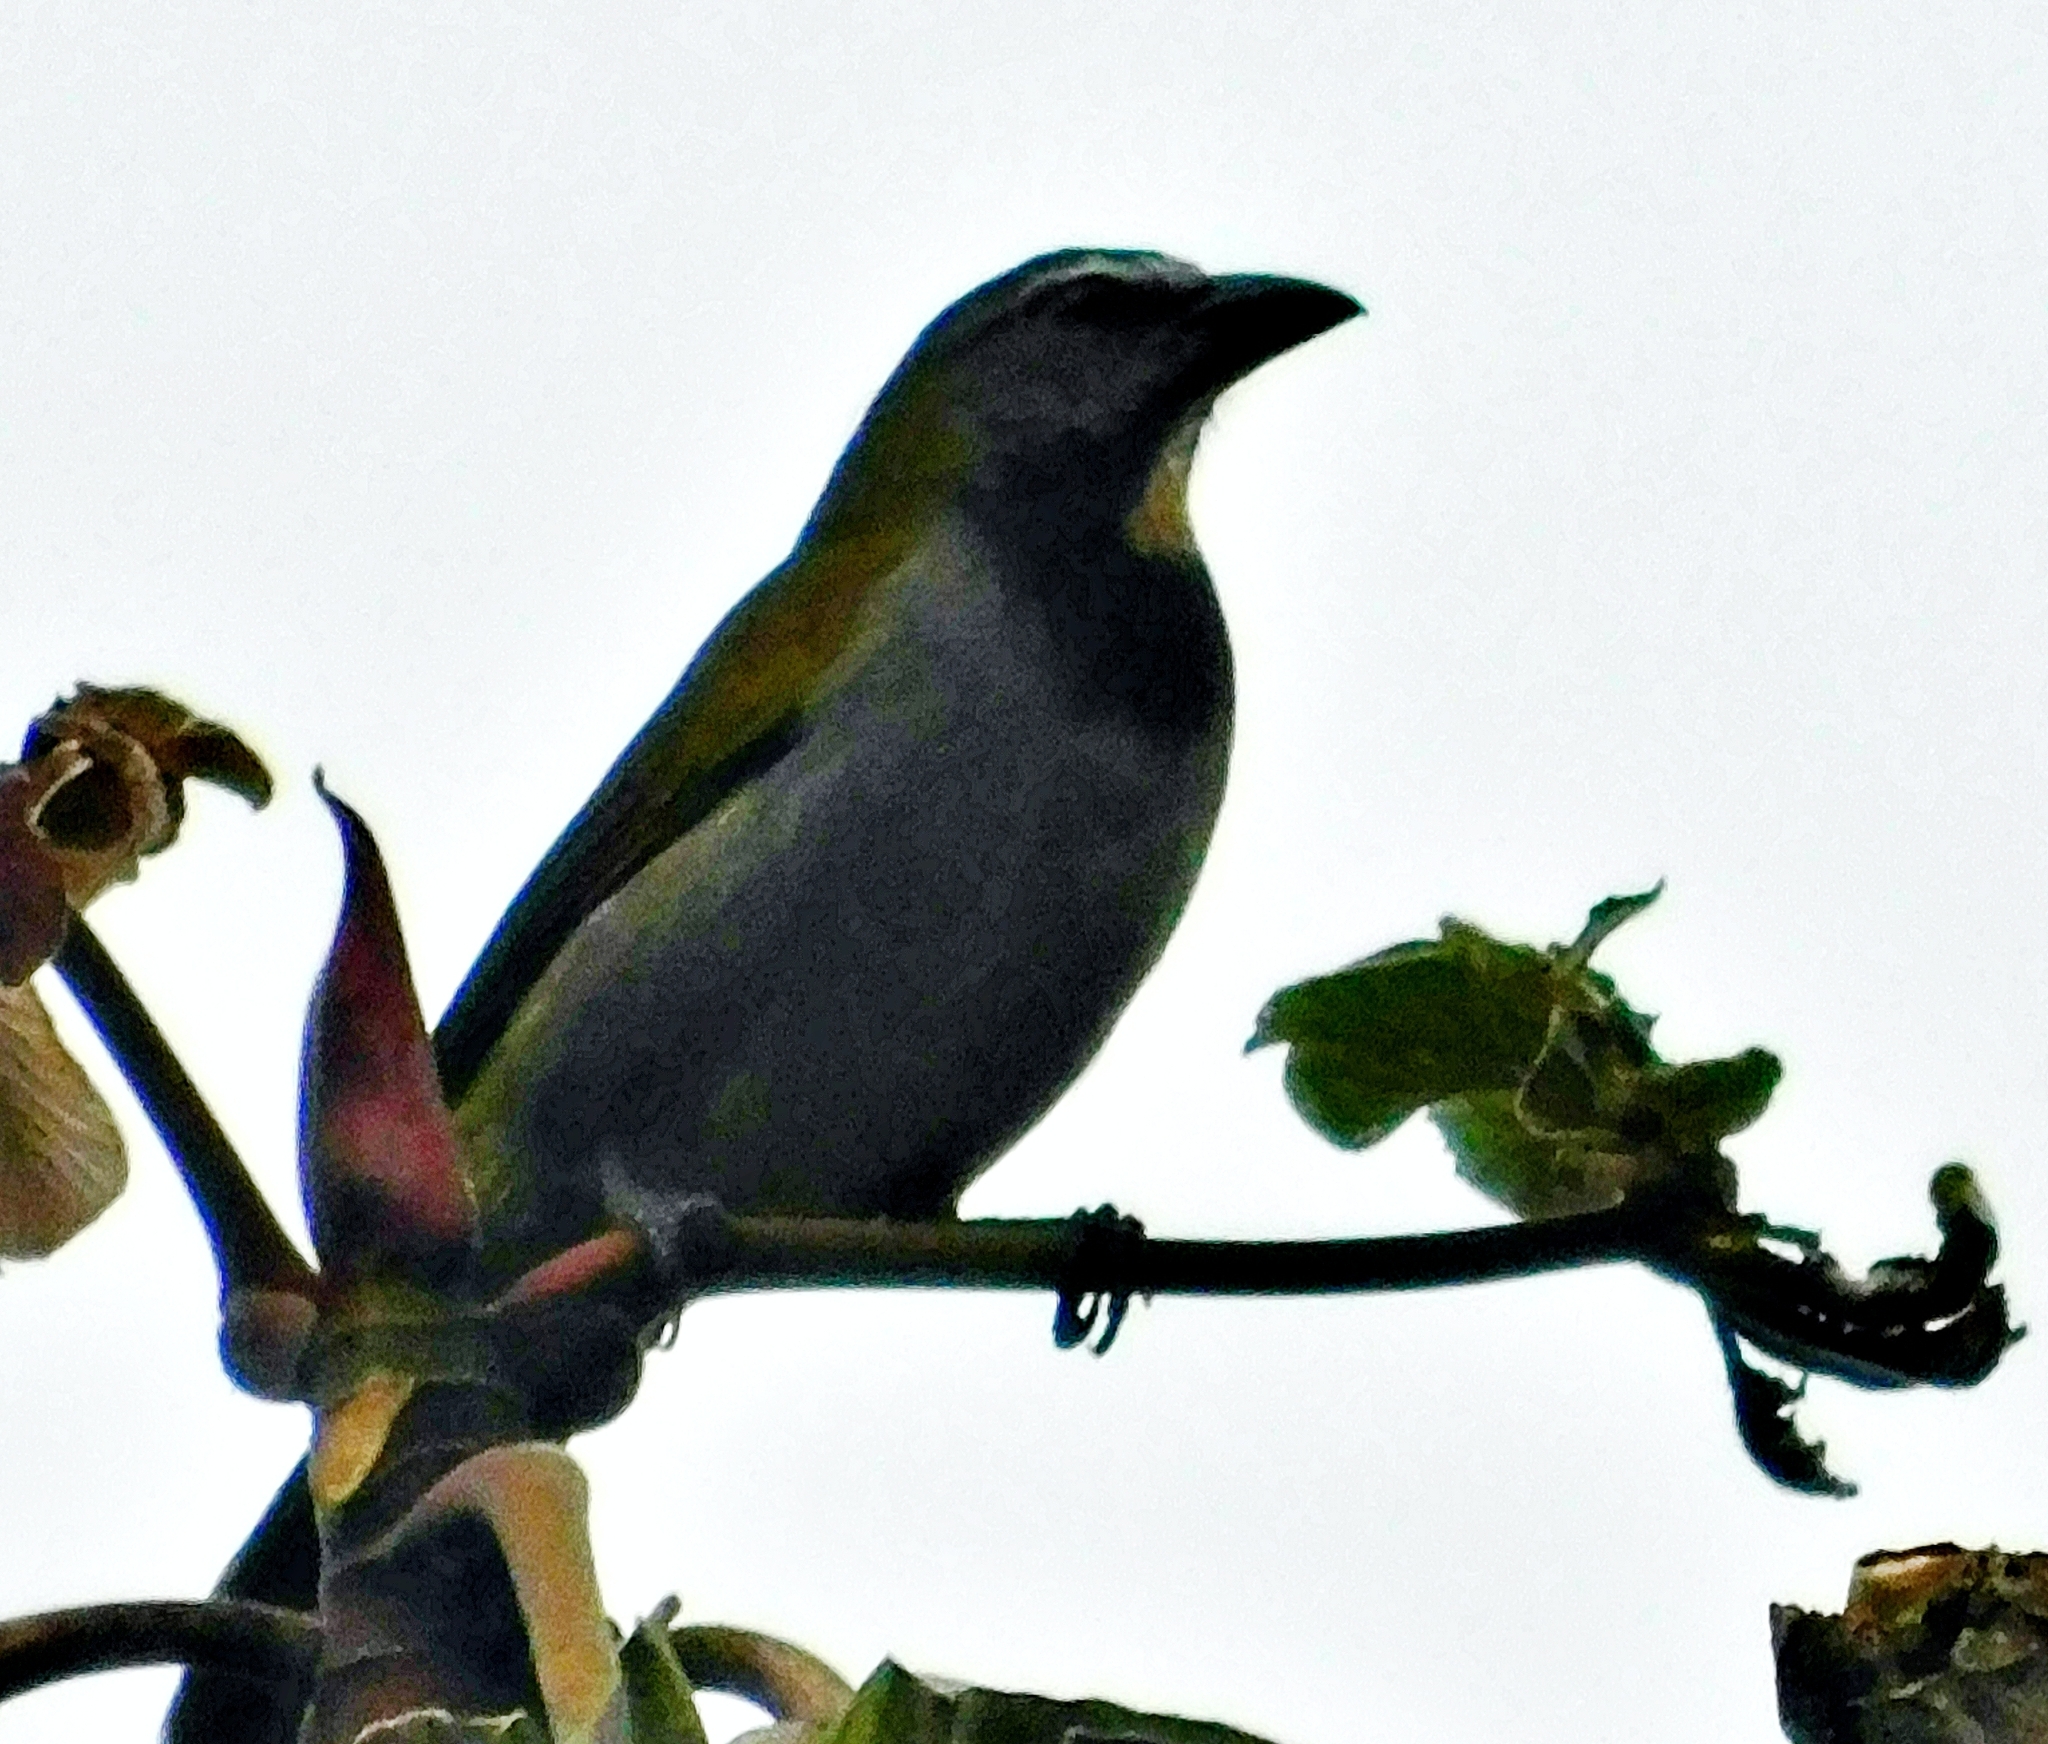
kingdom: Animalia
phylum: Chordata
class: Aves
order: Passeriformes
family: Thraupidae
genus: Saltator
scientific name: Saltator maximus
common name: Buff-throated saltator
